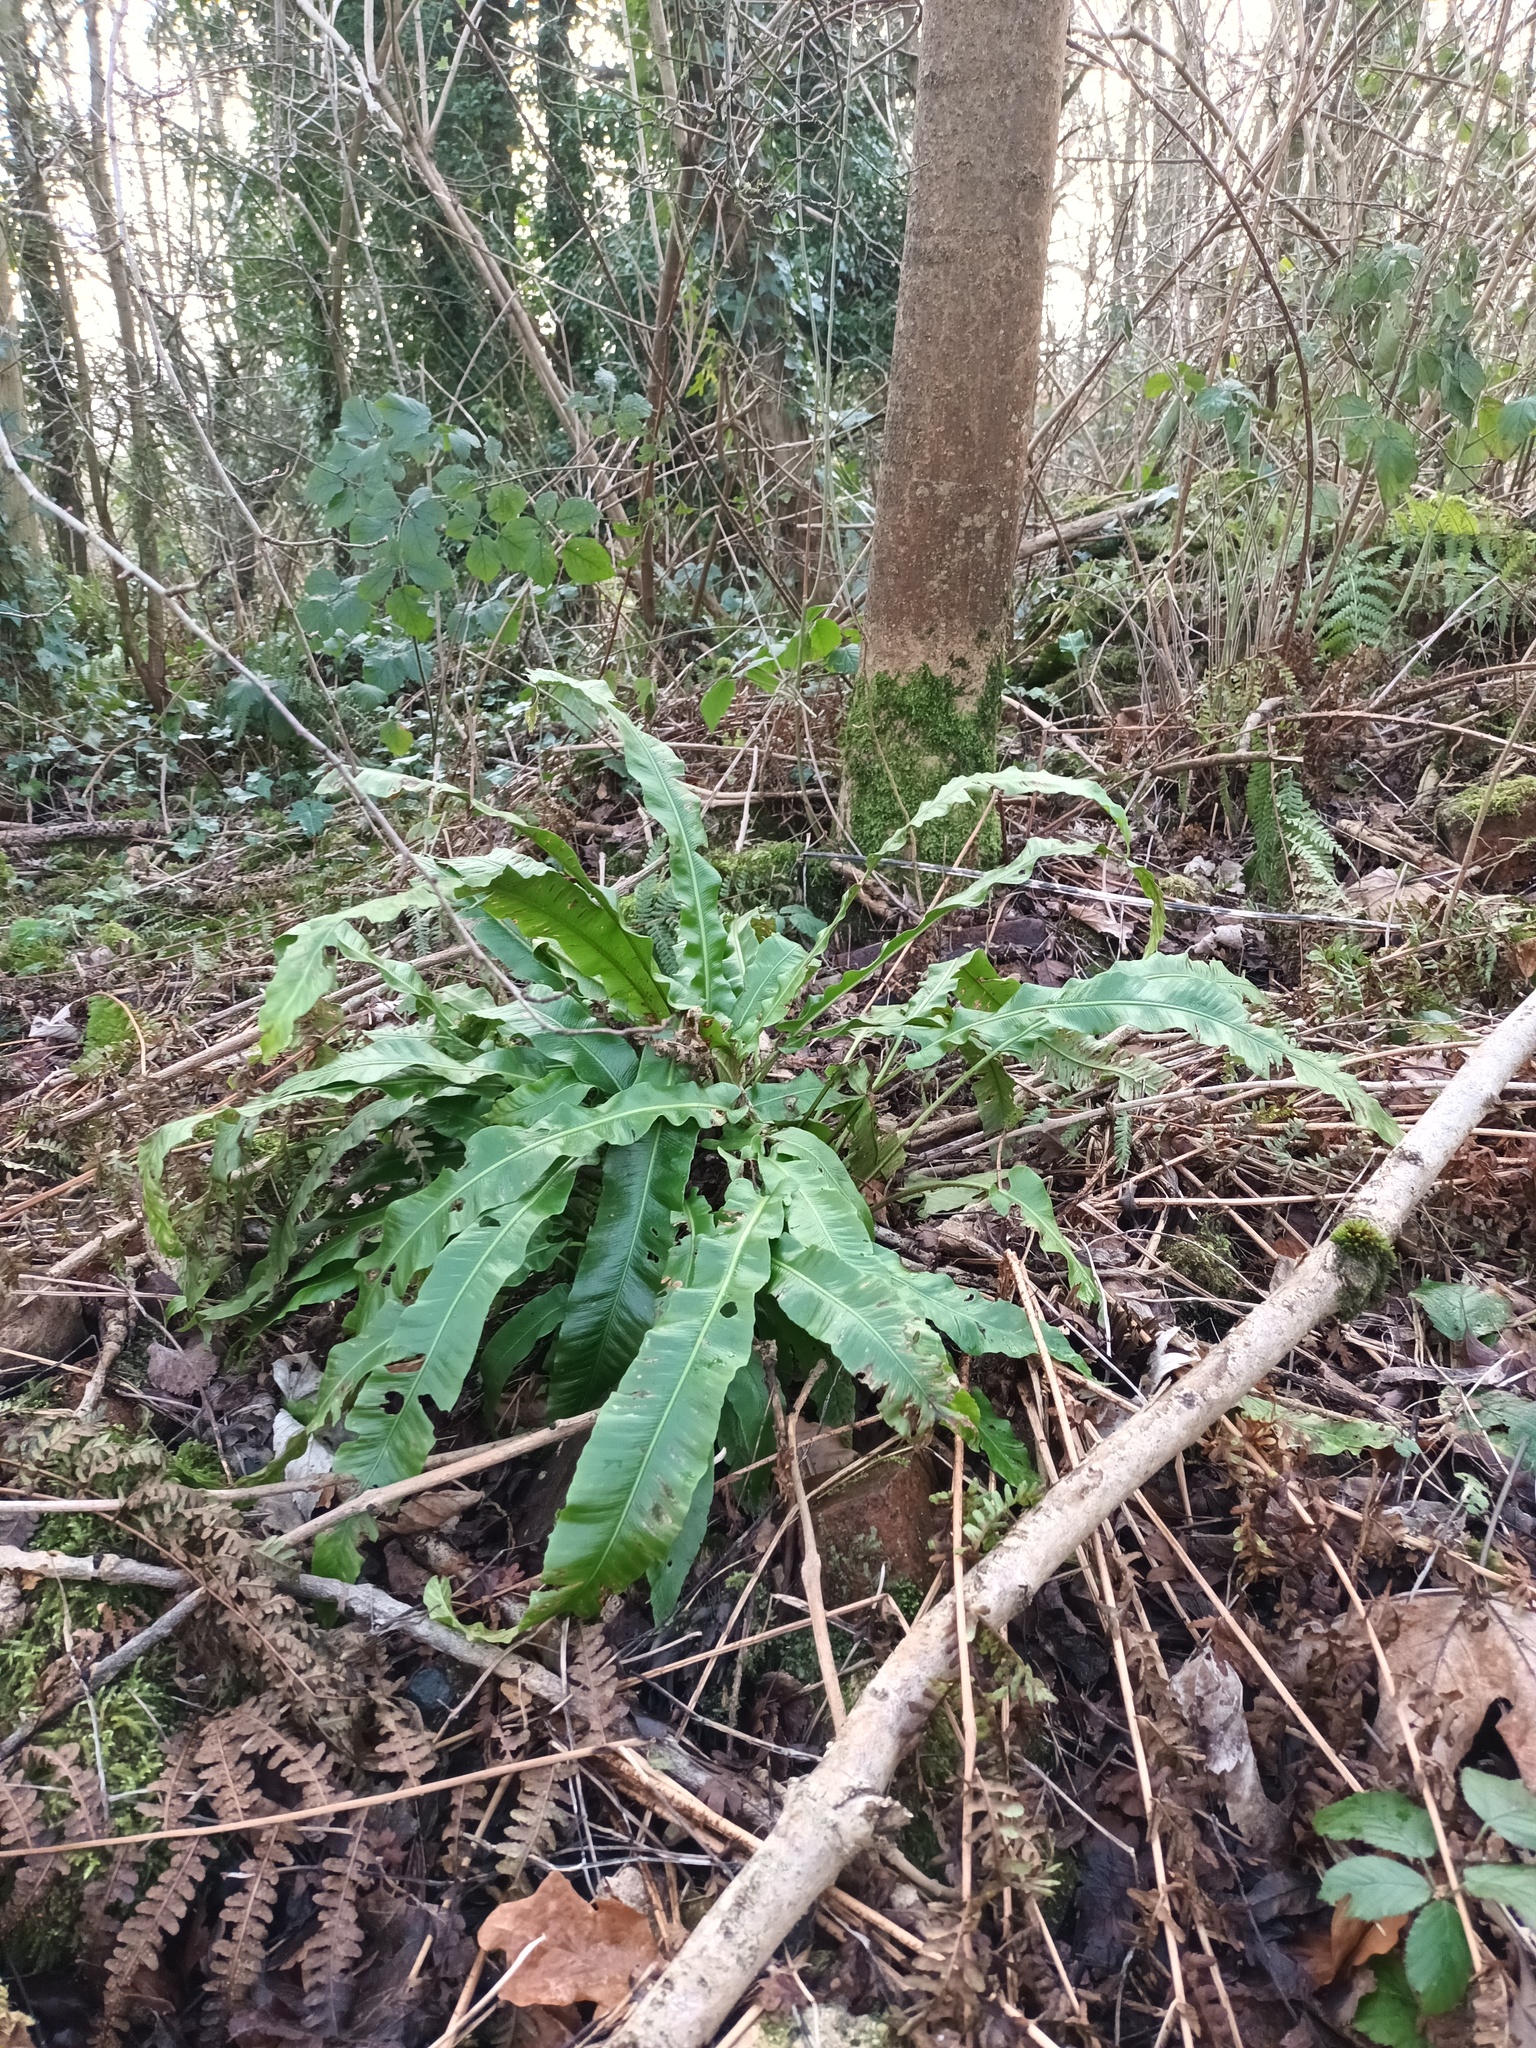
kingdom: Plantae
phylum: Tracheophyta
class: Polypodiopsida
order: Polypodiales
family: Aspleniaceae
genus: Asplenium
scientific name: Asplenium scolopendrium
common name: Hart's-tongue fern
